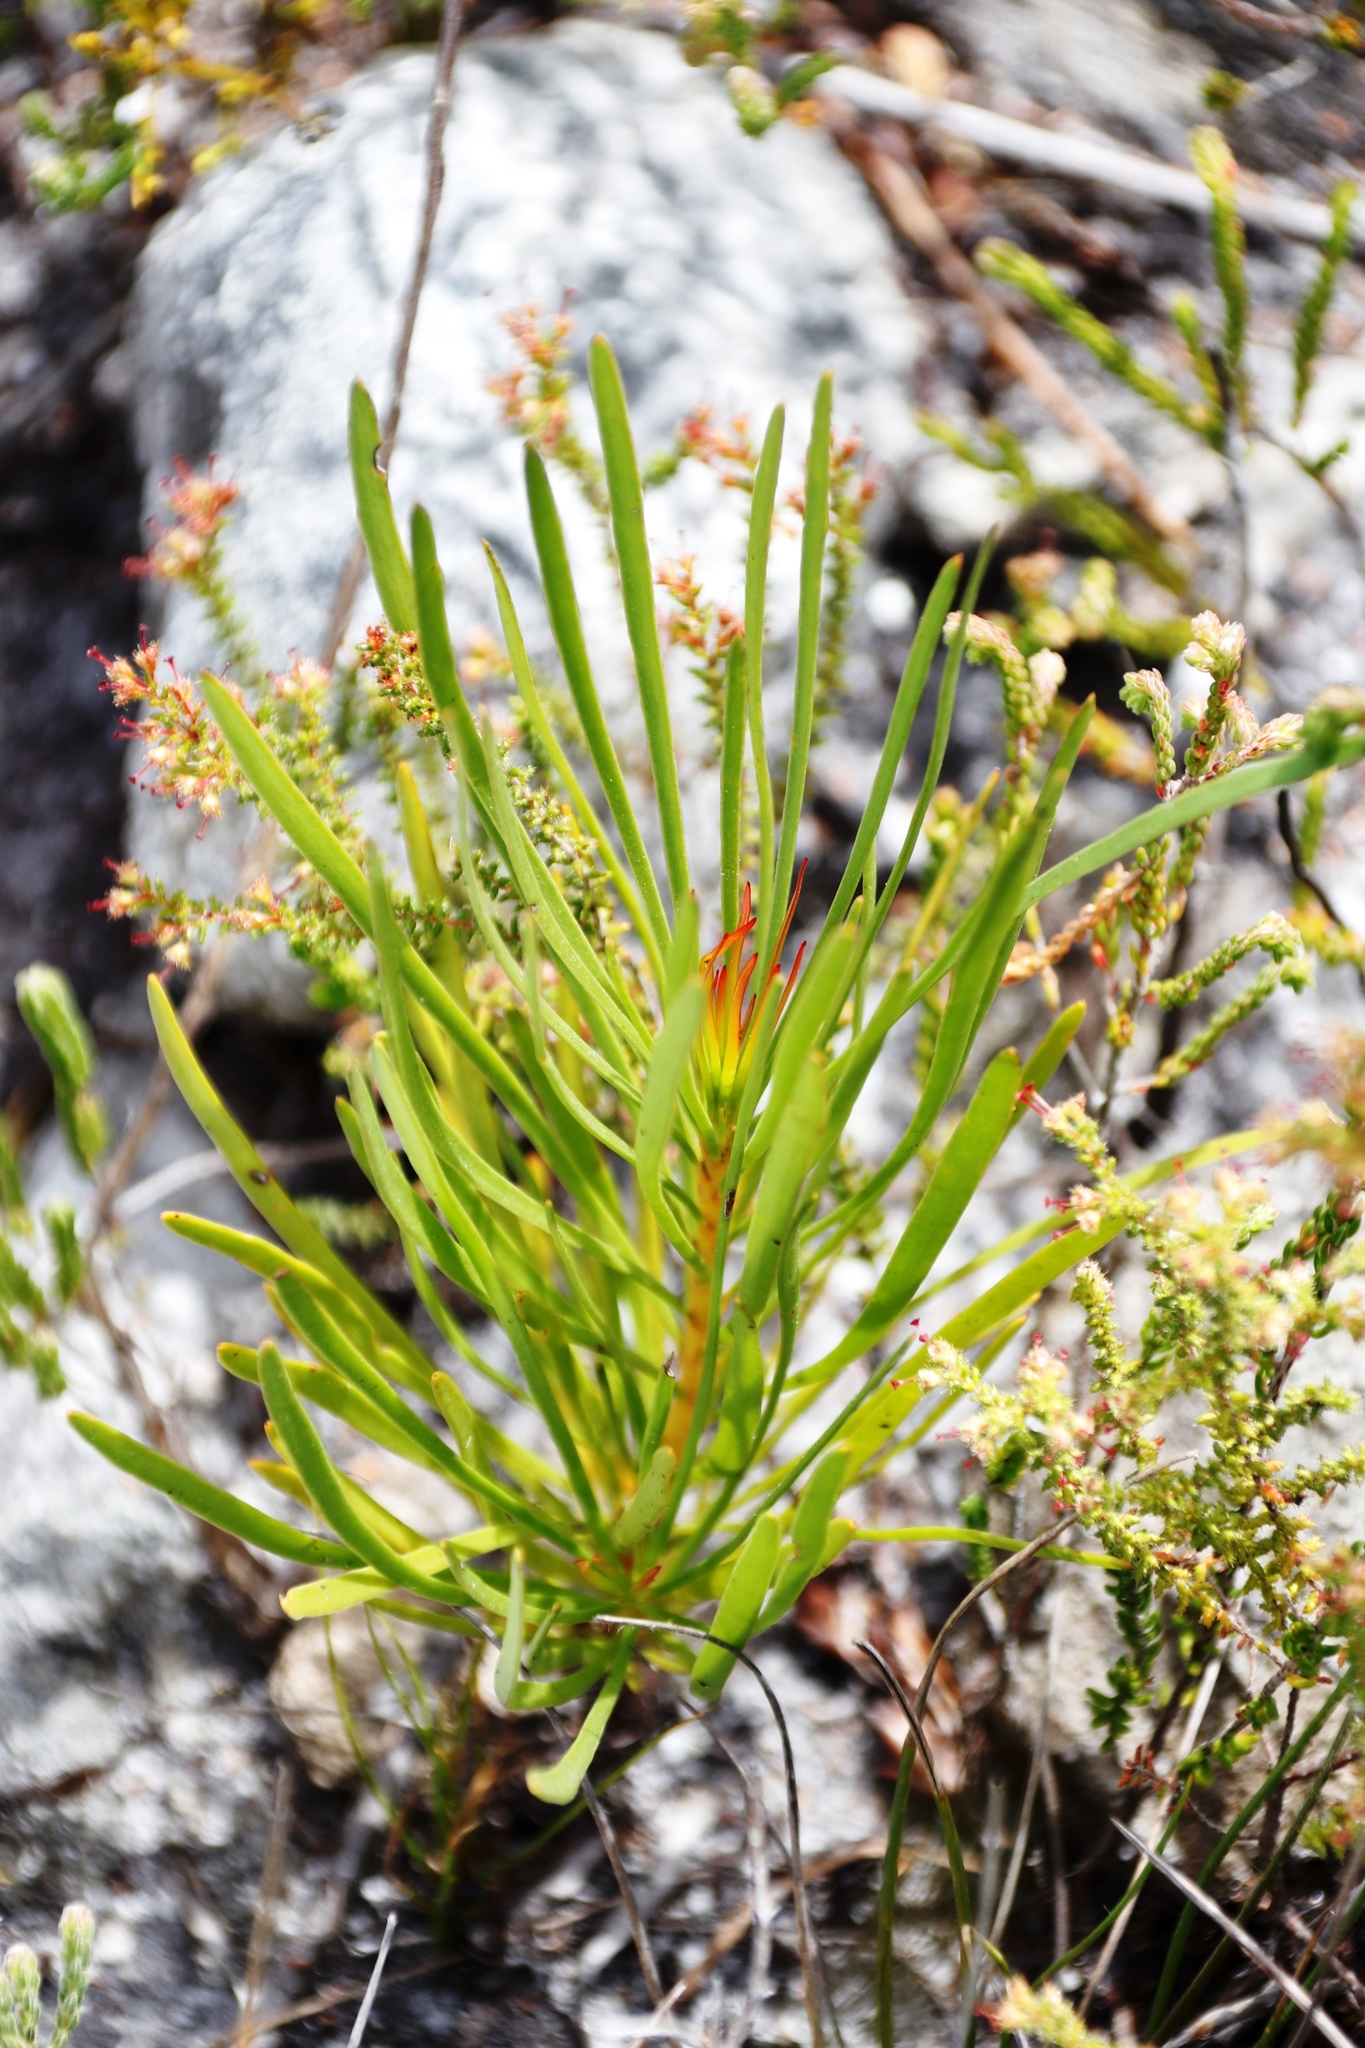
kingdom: Plantae
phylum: Tracheophyta
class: Magnoliopsida
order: Proteales
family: Proteaceae
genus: Aulax
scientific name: Aulax cancellata
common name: Channel-leaf featherbush
